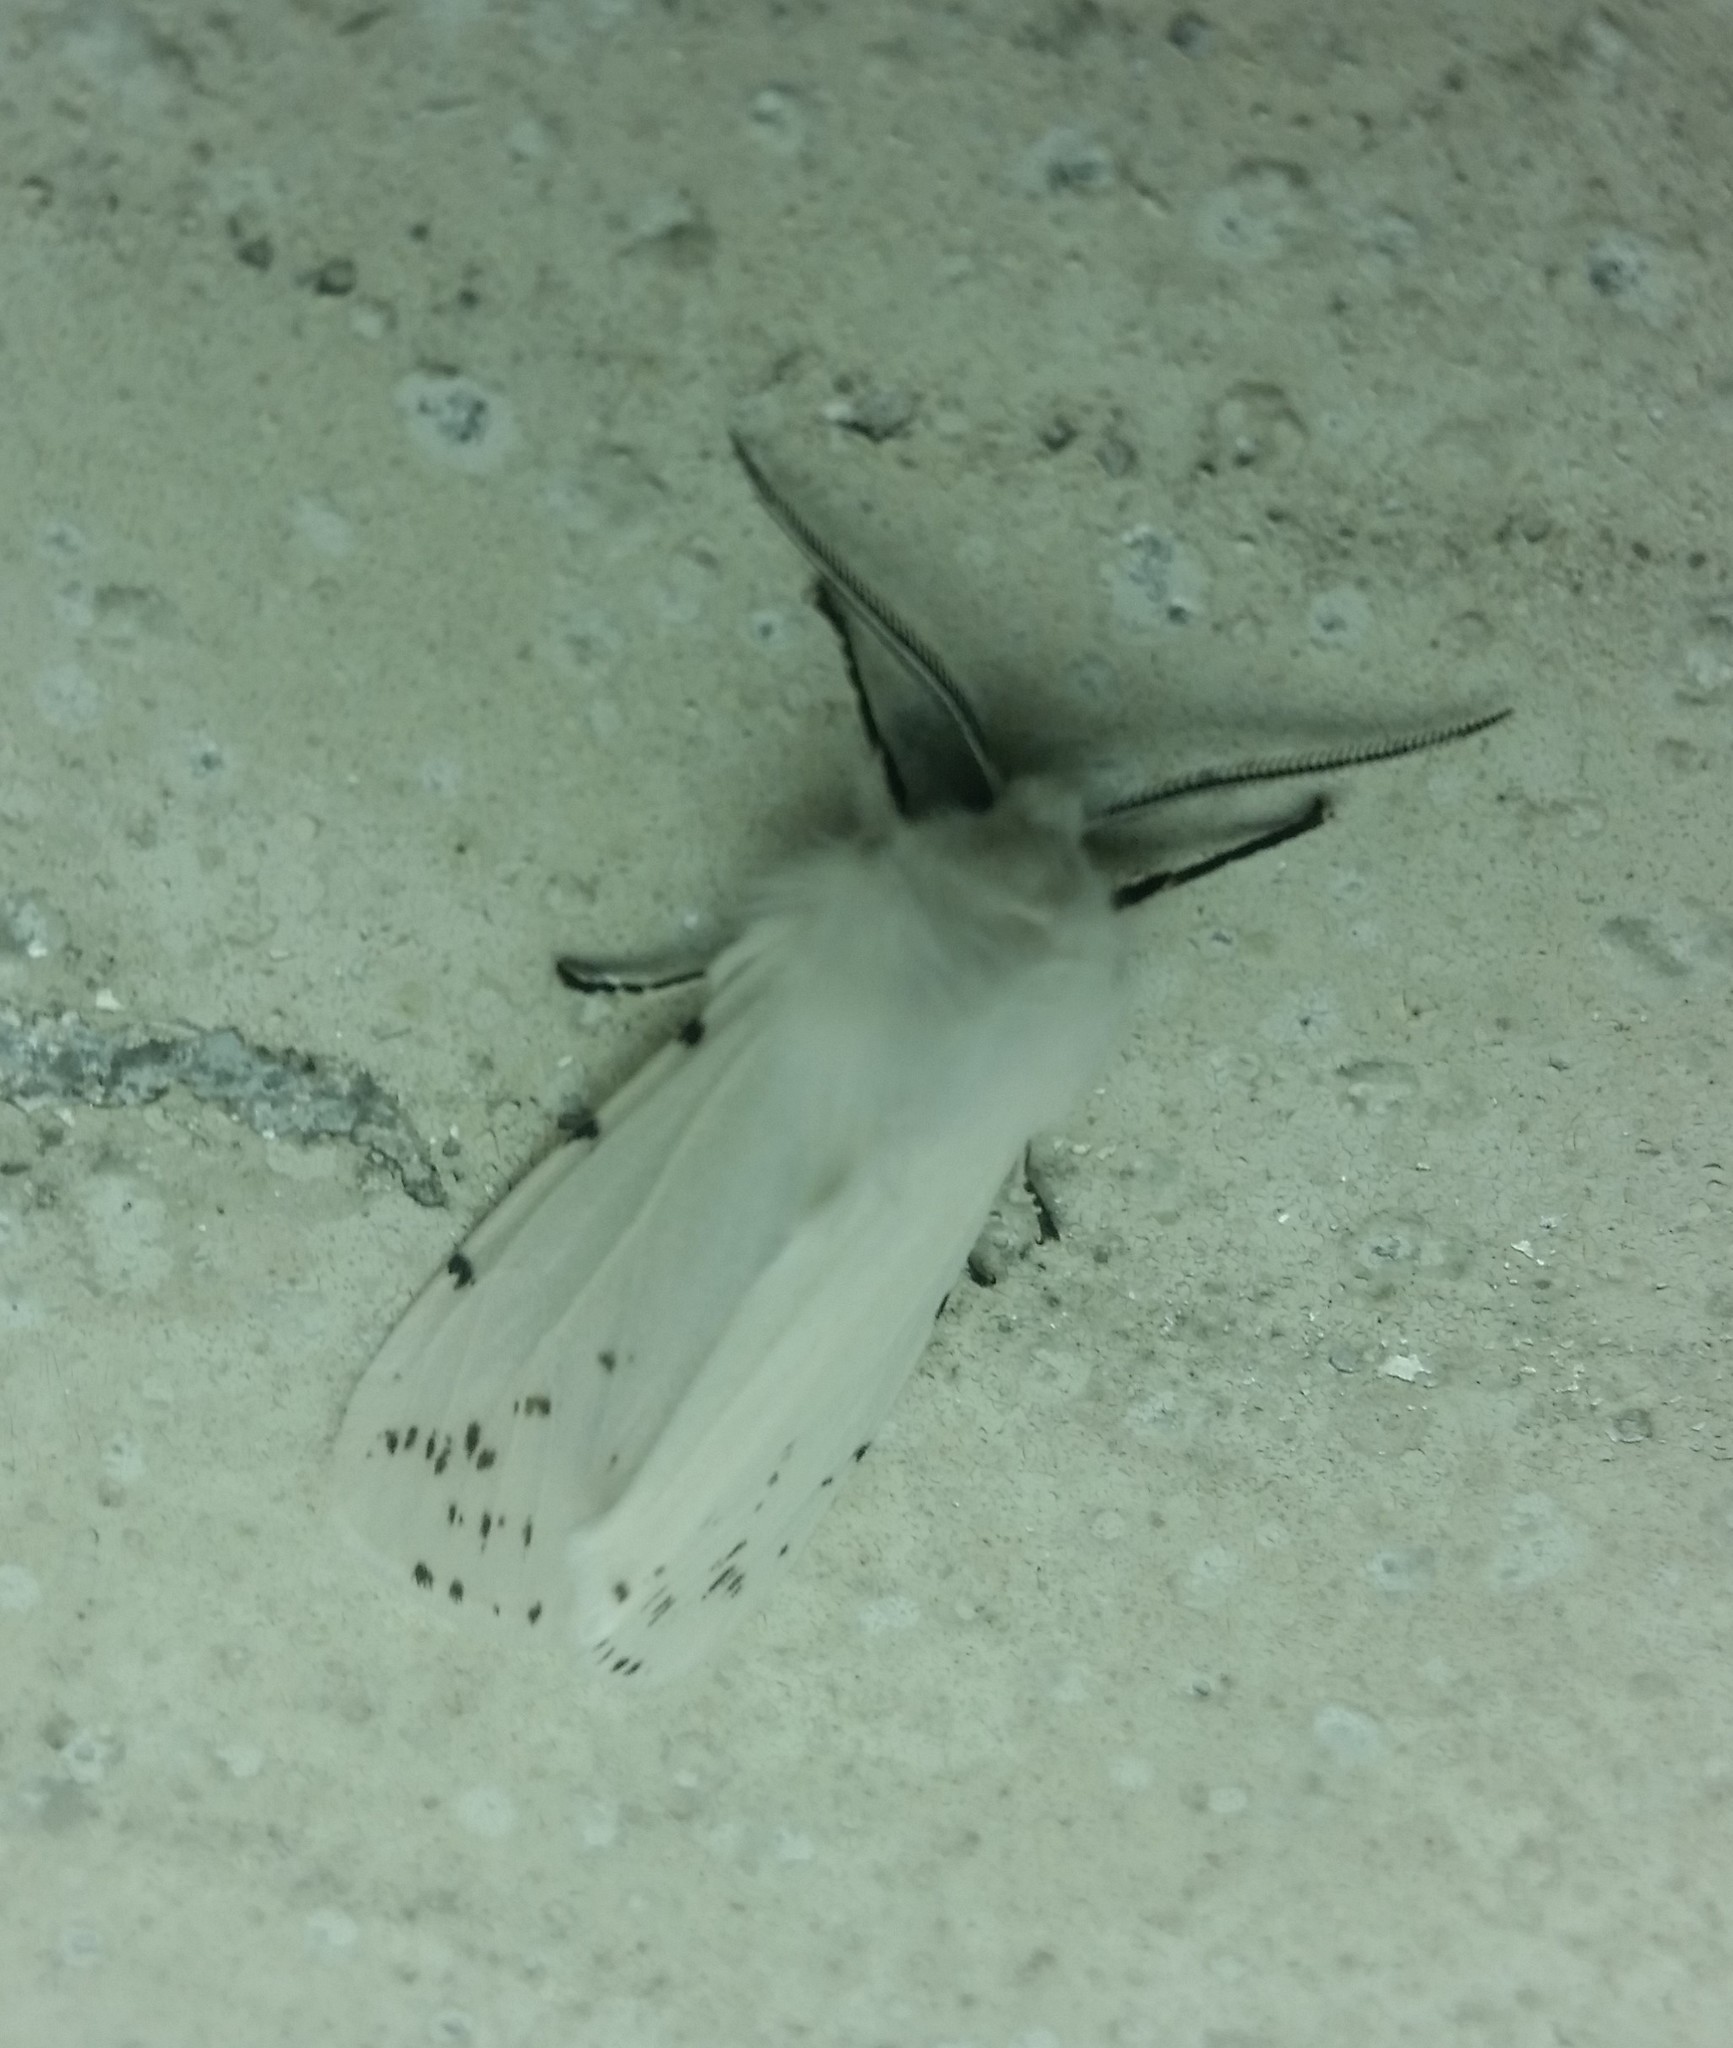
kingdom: Animalia
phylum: Arthropoda
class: Insecta
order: Lepidoptera
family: Erebidae
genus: Hyphantria
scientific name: Hyphantria cunea
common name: American white moth
